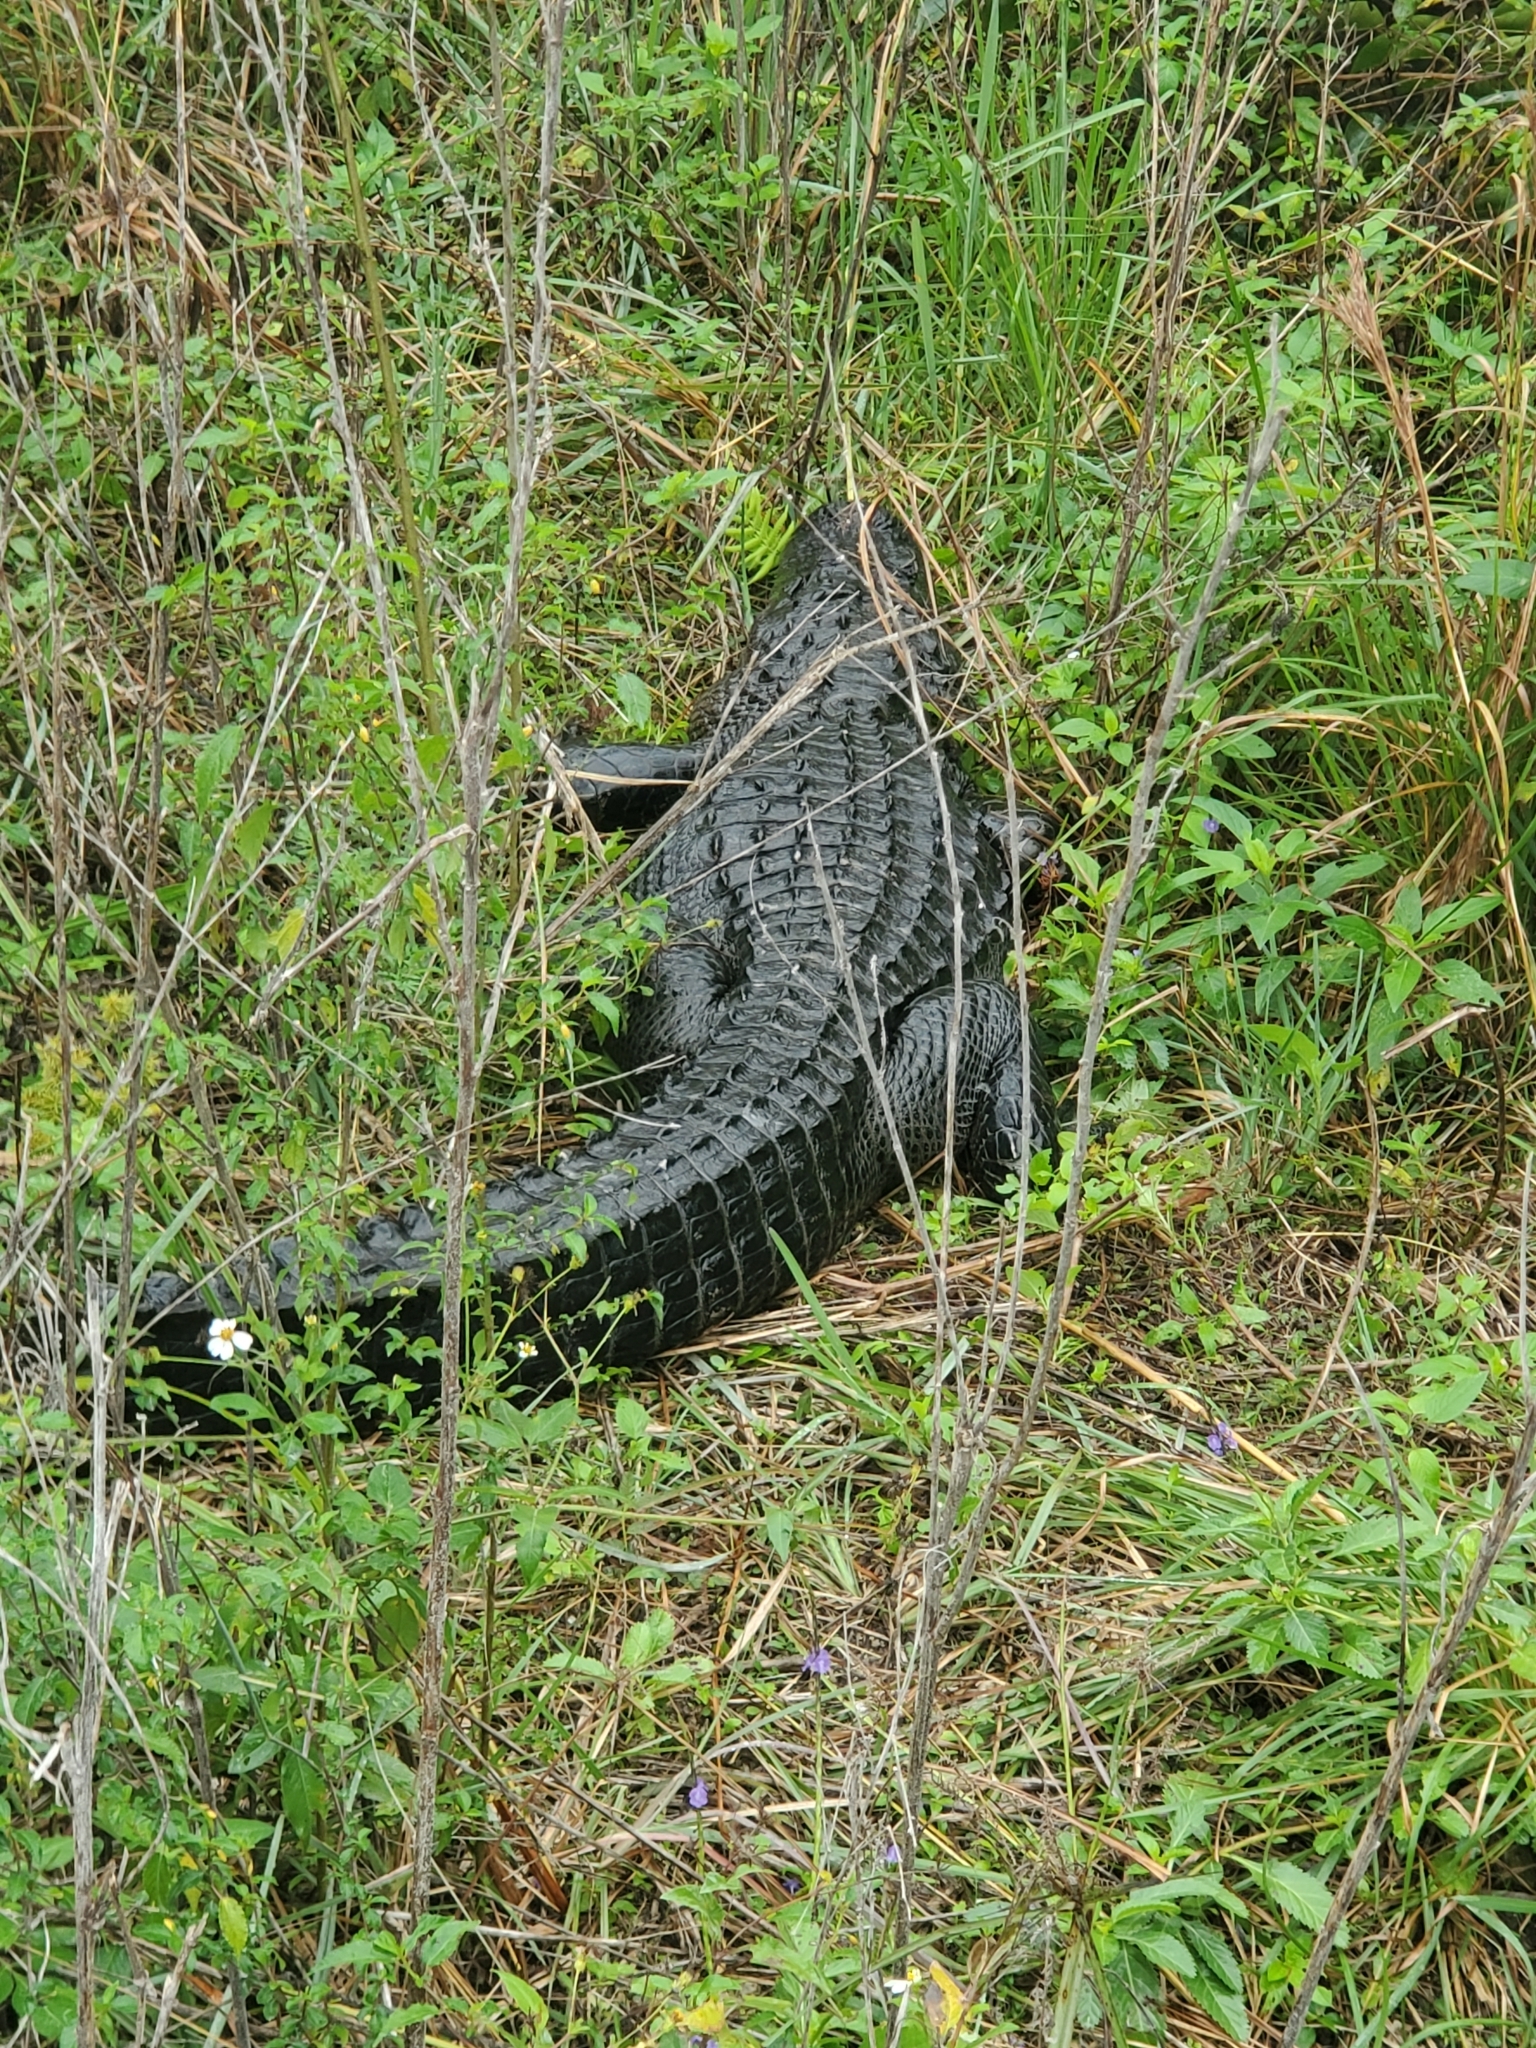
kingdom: Animalia
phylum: Chordata
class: Crocodylia
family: Alligatoridae
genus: Alligator
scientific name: Alligator mississippiensis
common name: American alligator
